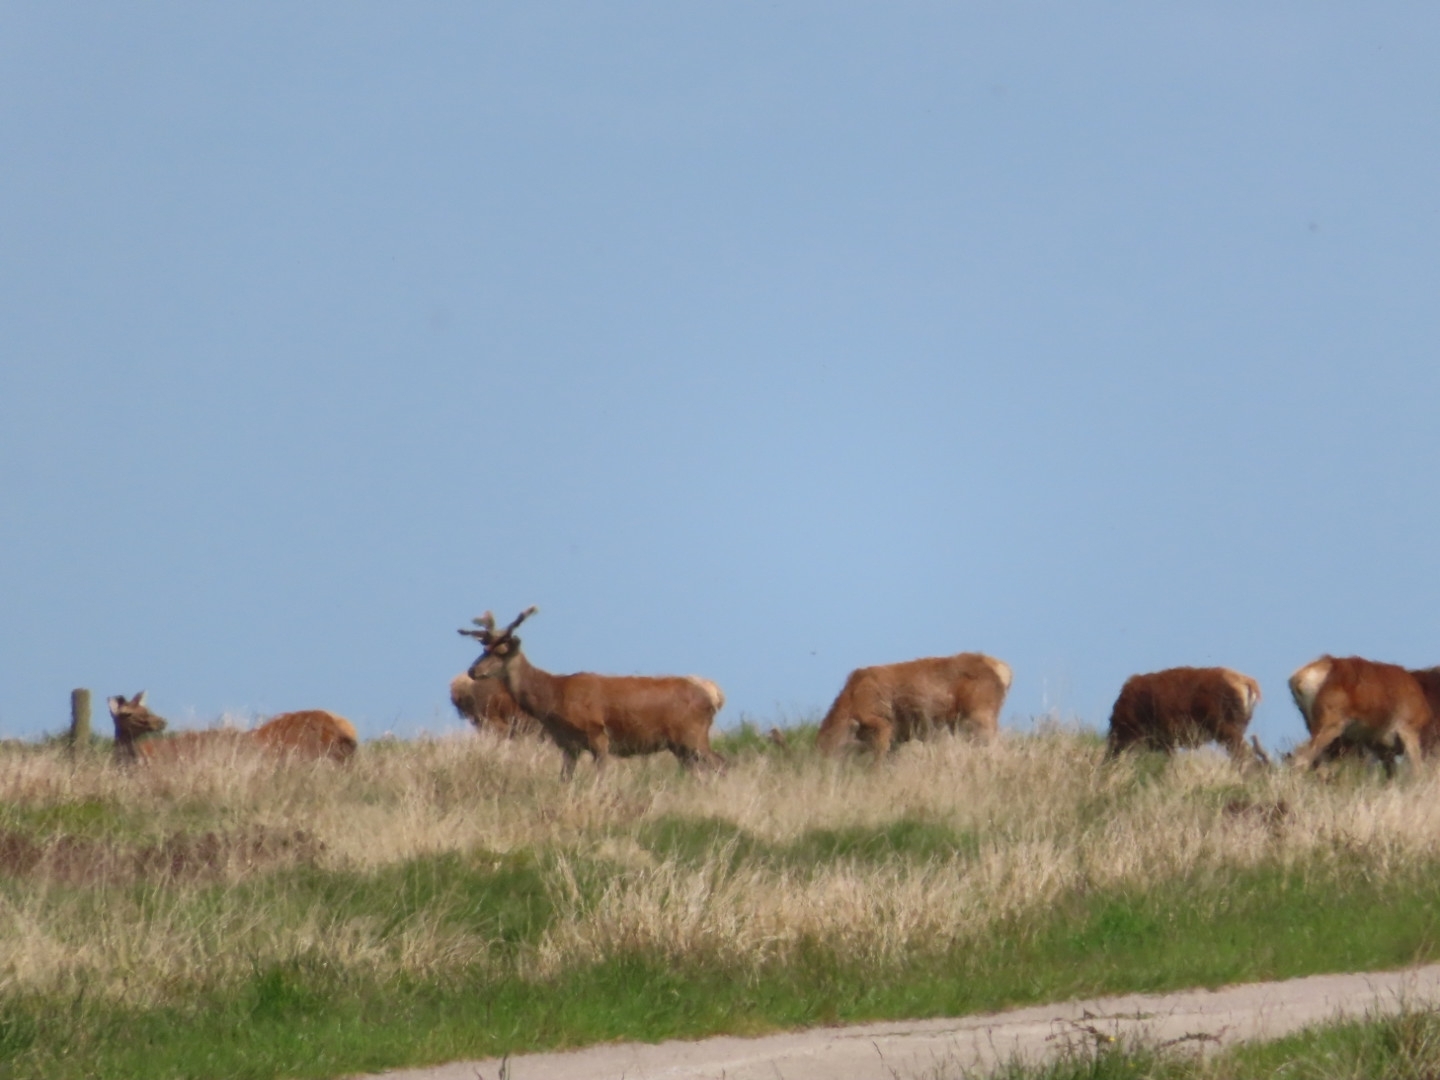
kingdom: Animalia
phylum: Chordata
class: Mammalia
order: Artiodactyla
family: Cervidae
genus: Cervus
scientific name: Cervus elaphus
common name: Red deer
